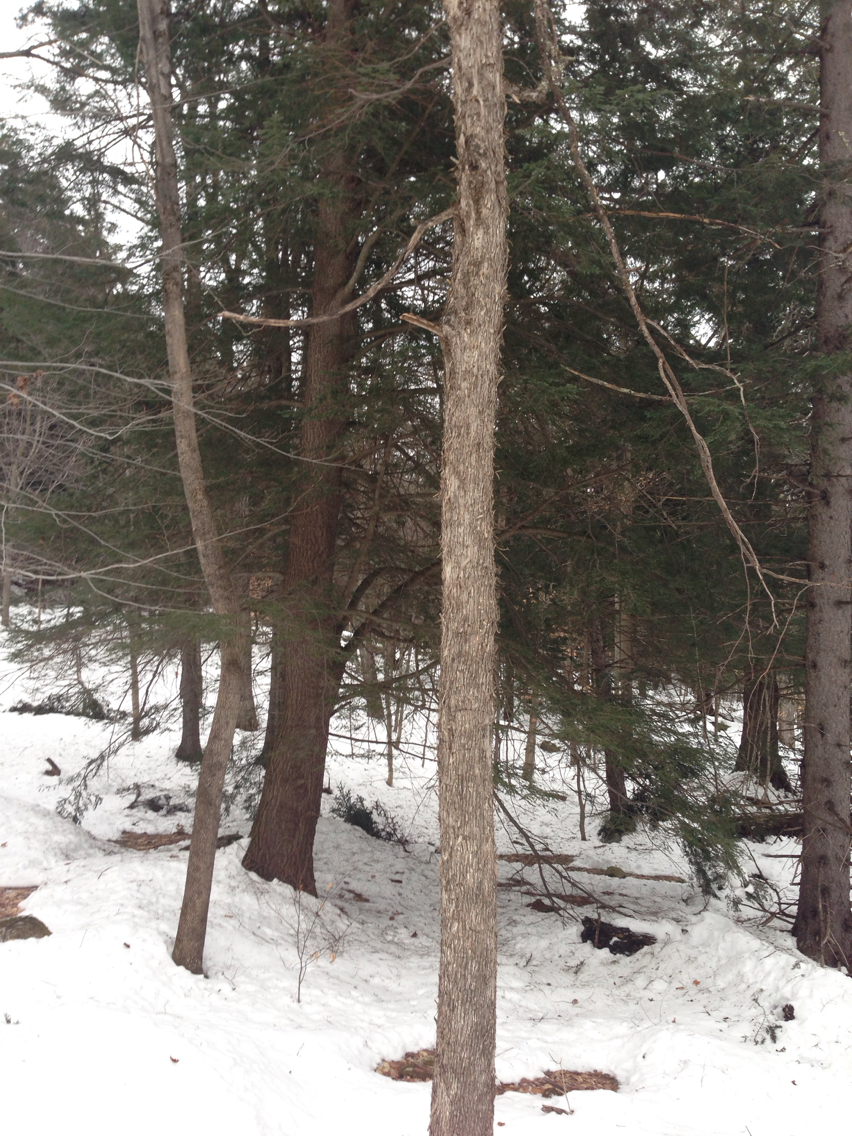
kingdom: Plantae
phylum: Tracheophyta
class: Pinopsida
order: Pinales
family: Pinaceae
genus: Tsuga
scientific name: Tsuga canadensis
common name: Eastern hemlock
